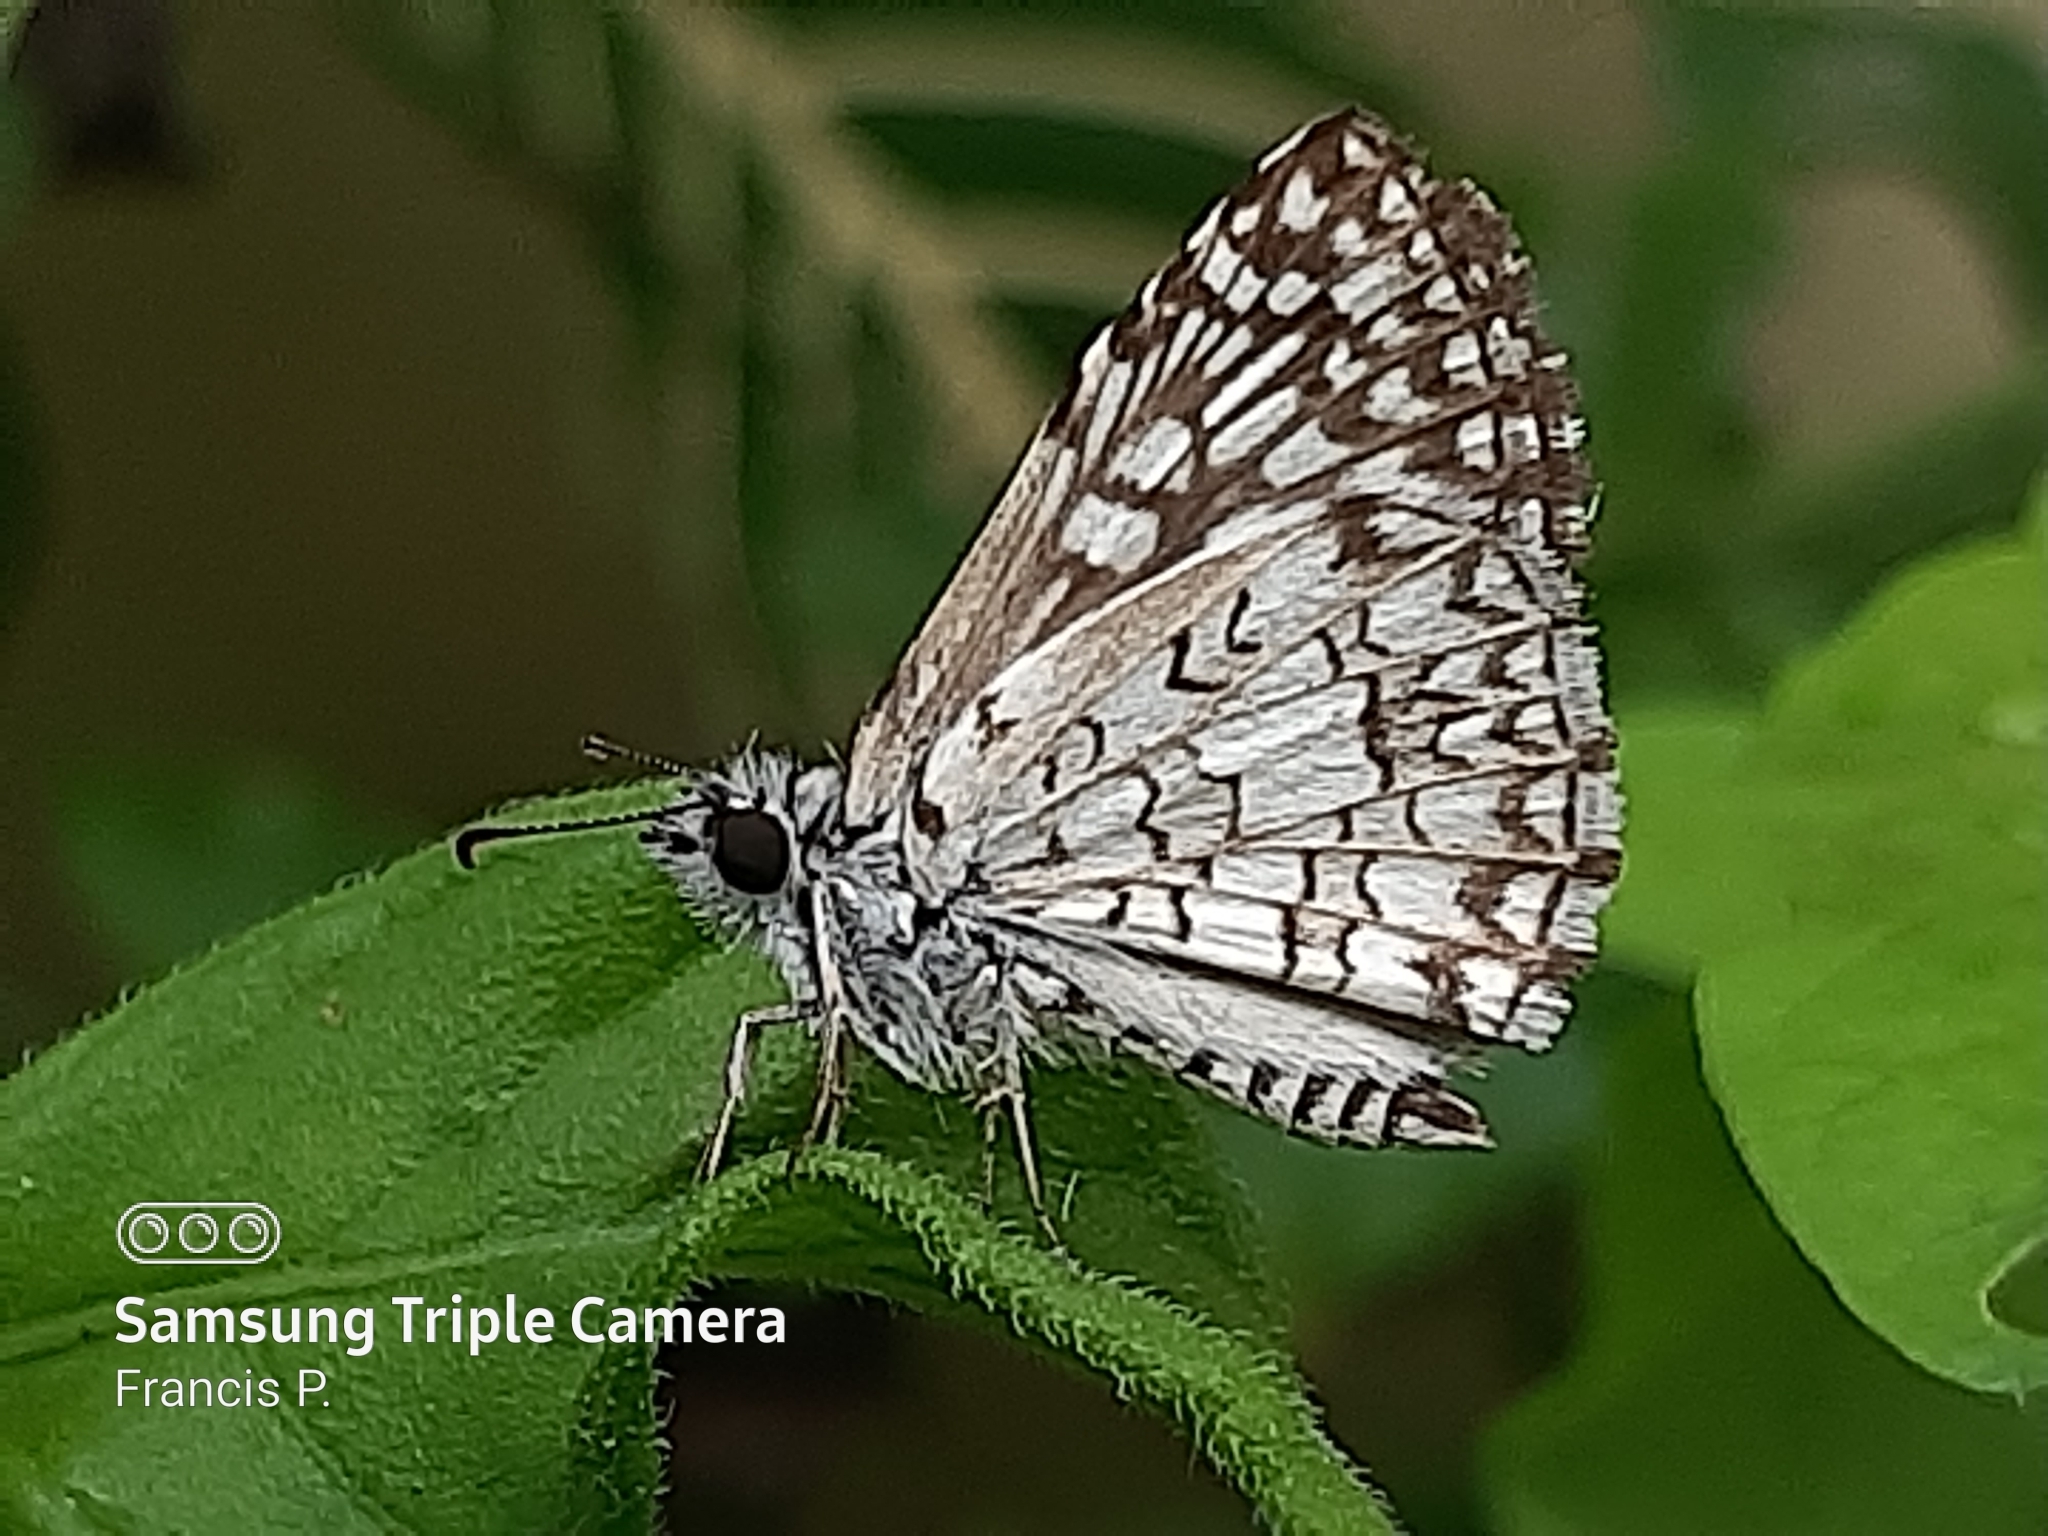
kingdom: Animalia
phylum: Arthropoda
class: Insecta
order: Lepidoptera
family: Hesperiidae
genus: Pyrgus
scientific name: Pyrgus oileus
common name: Tropical checkered-skipper
